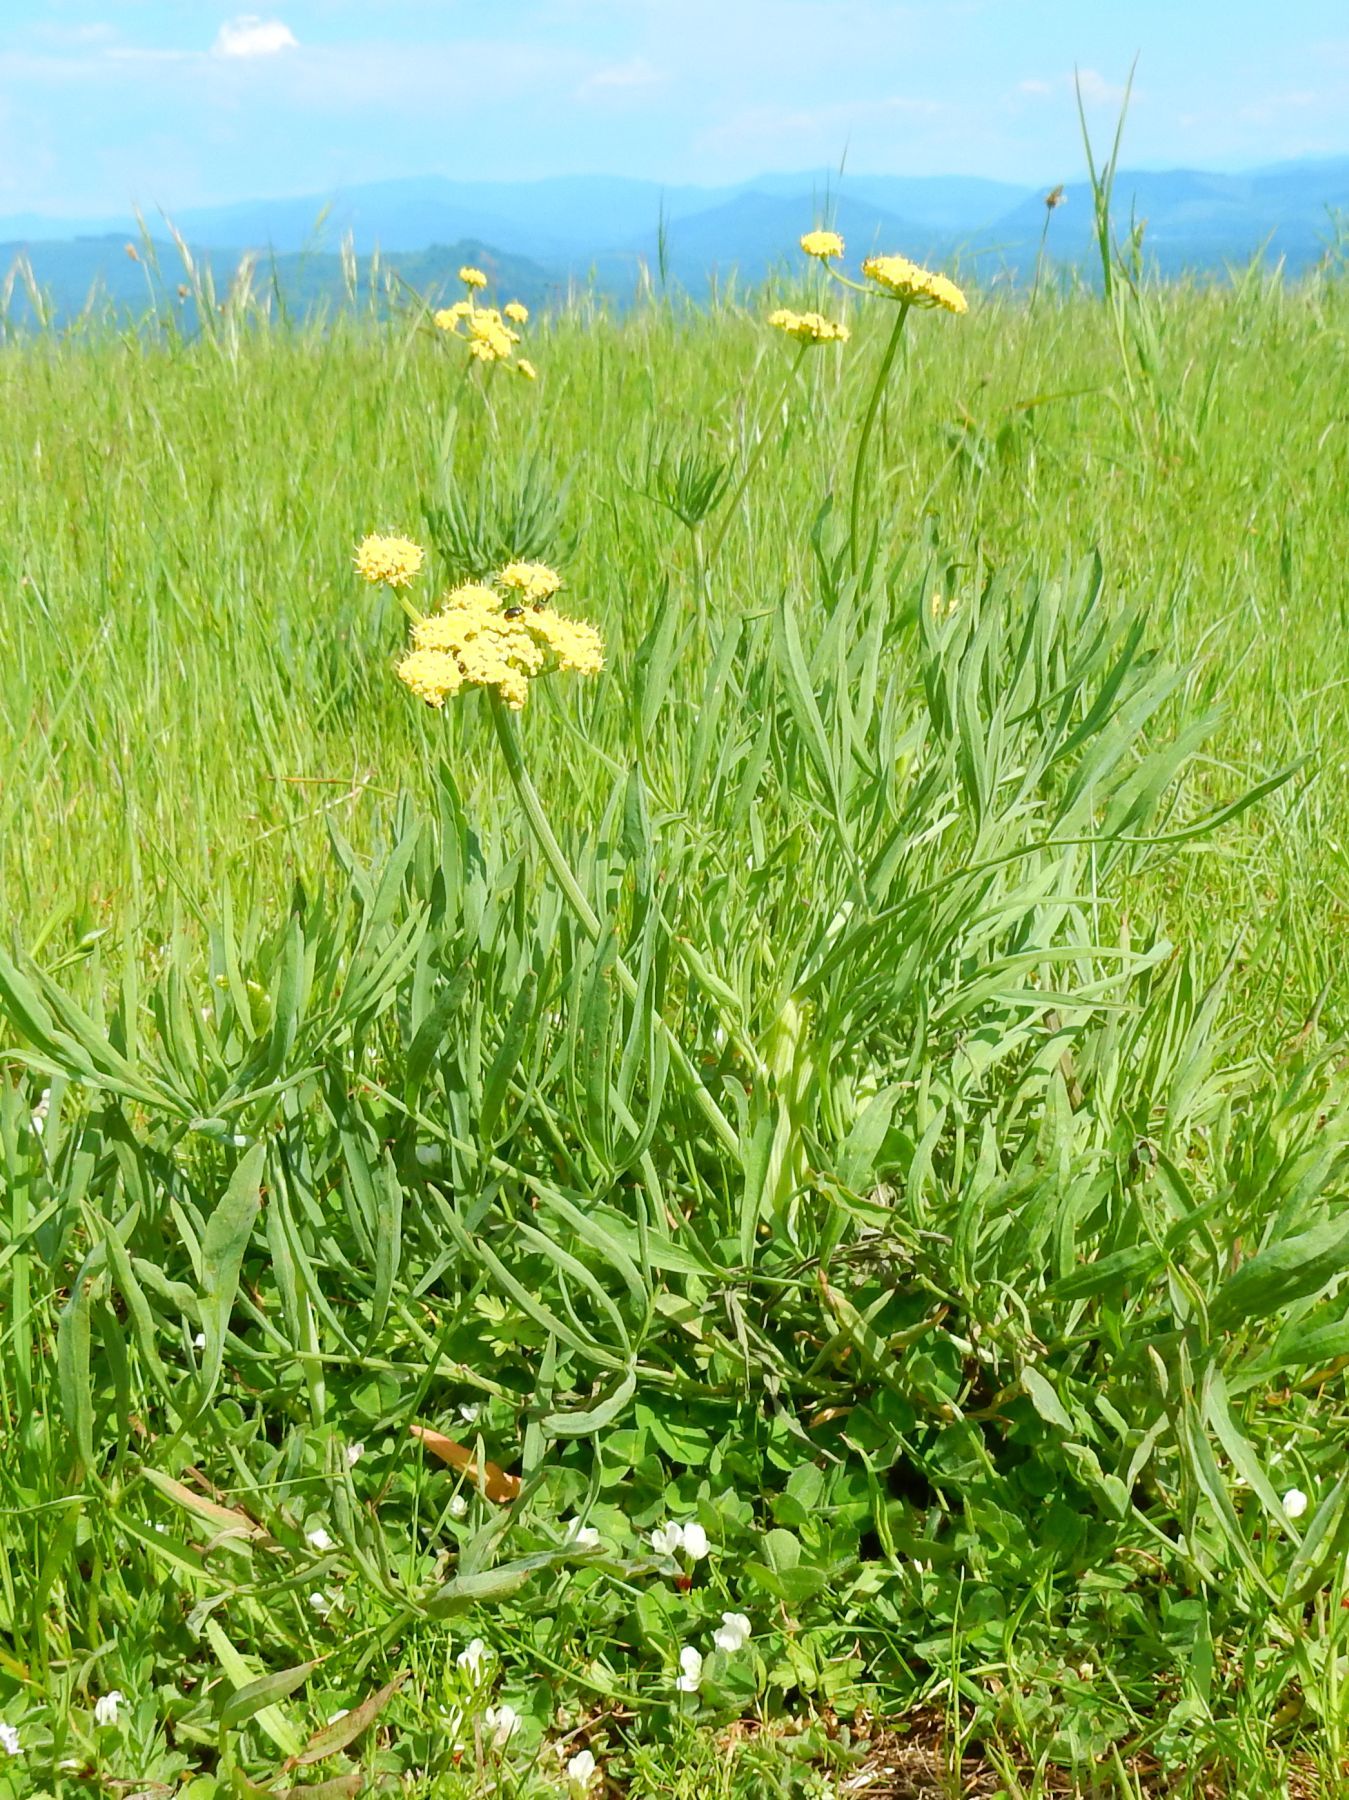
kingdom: Plantae
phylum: Tracheophyta
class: Magnoliopsida
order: Apiales
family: Apiaceae
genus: Lomatium
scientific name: Lomatium triternatum
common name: Ternate lomatium
